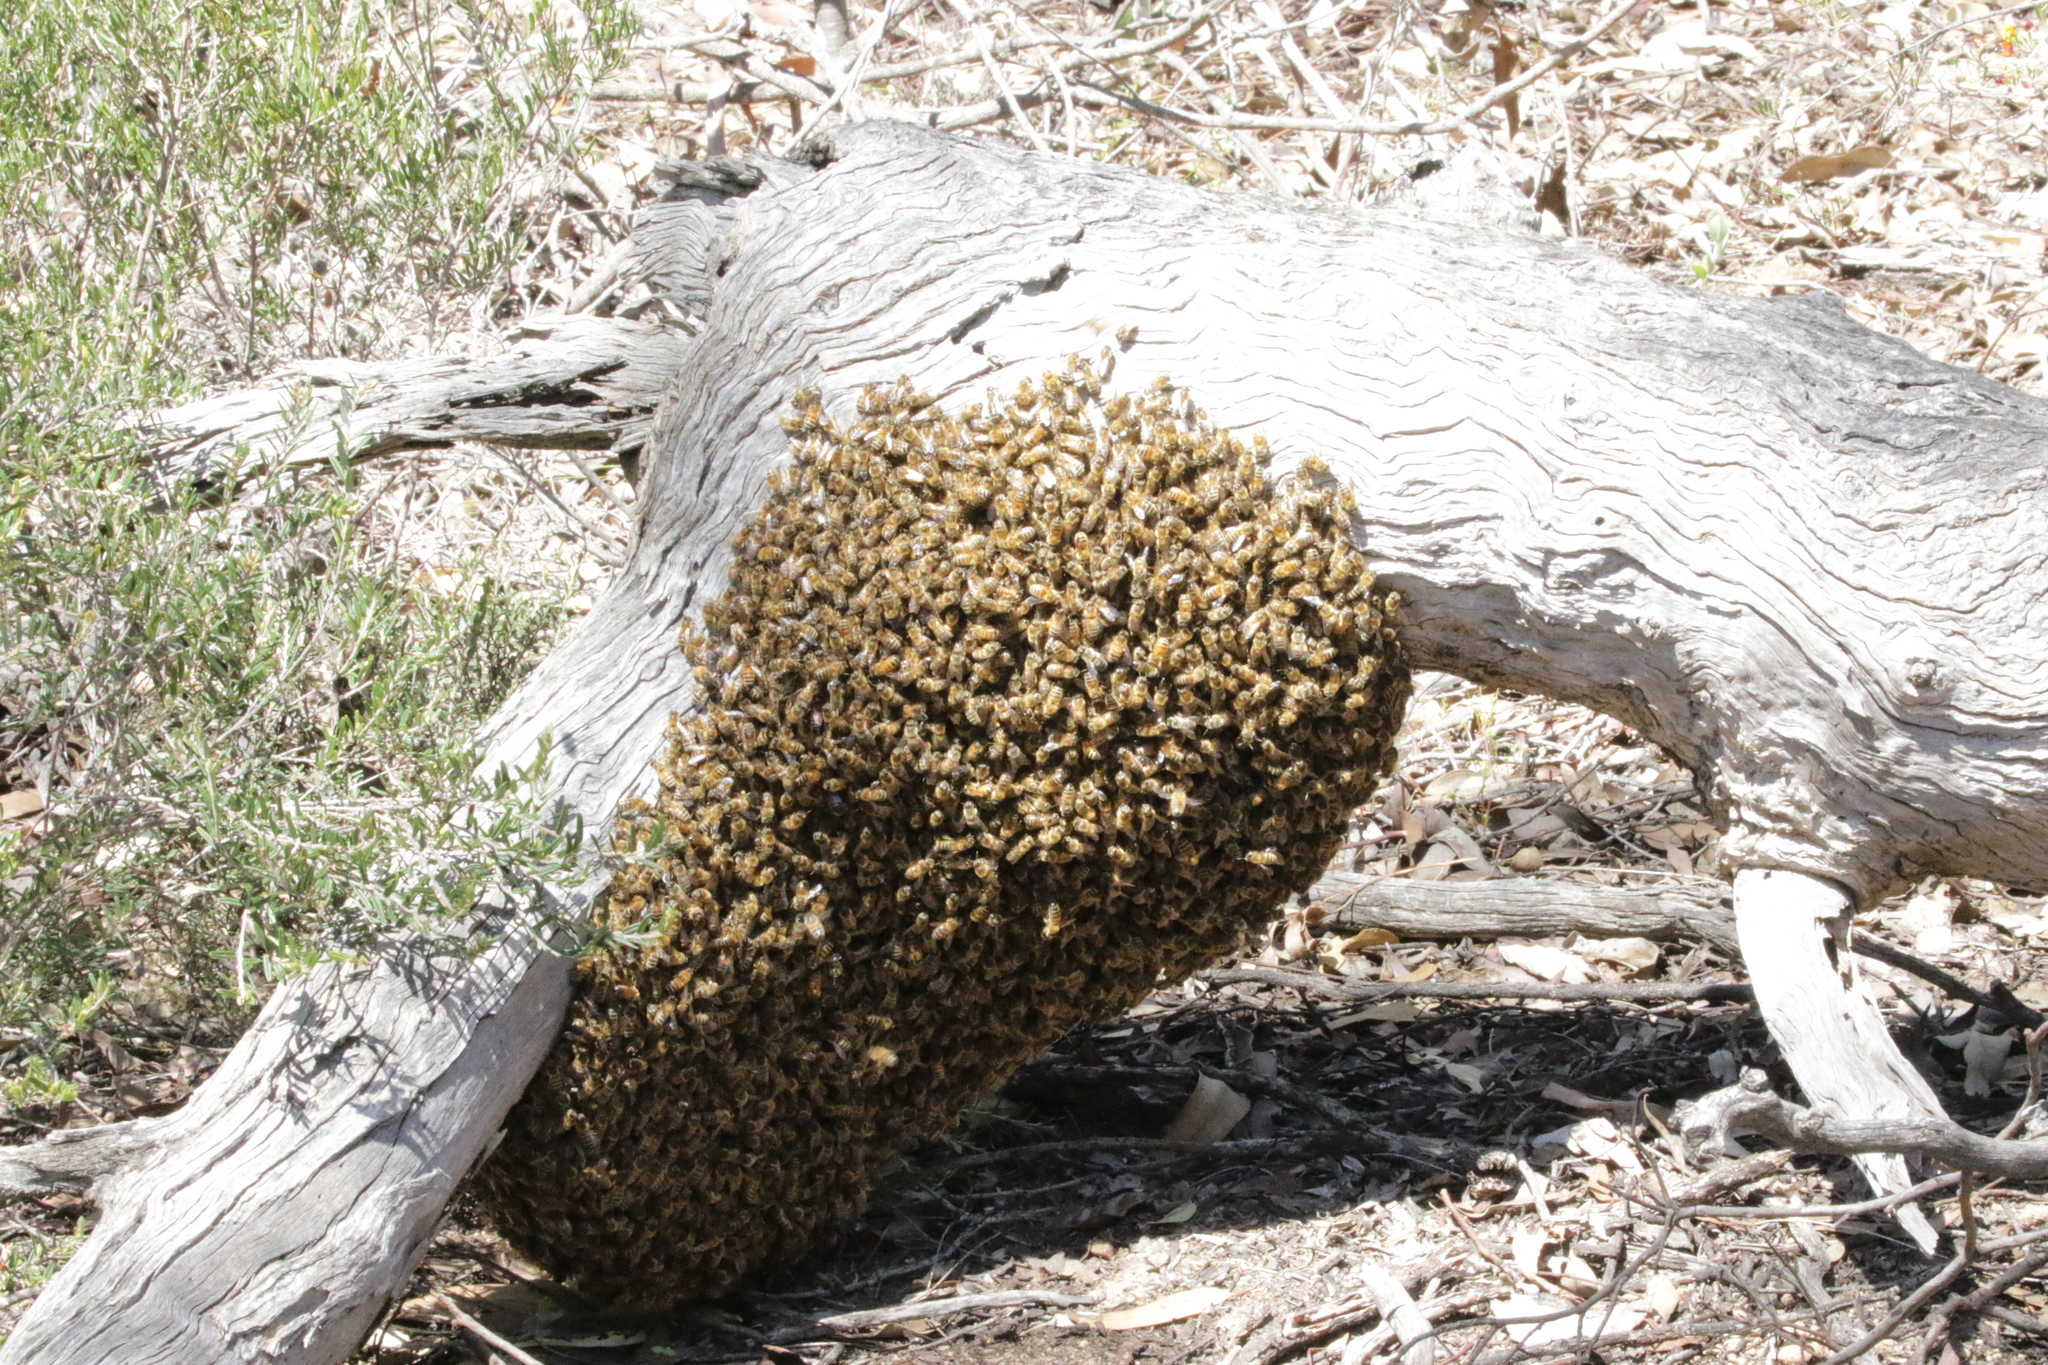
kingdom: Animalia
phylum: Arthropoda
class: Insecta
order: Hymenoptera
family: Apidae
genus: Apis
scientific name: Apis mellifera
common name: Honey bee
